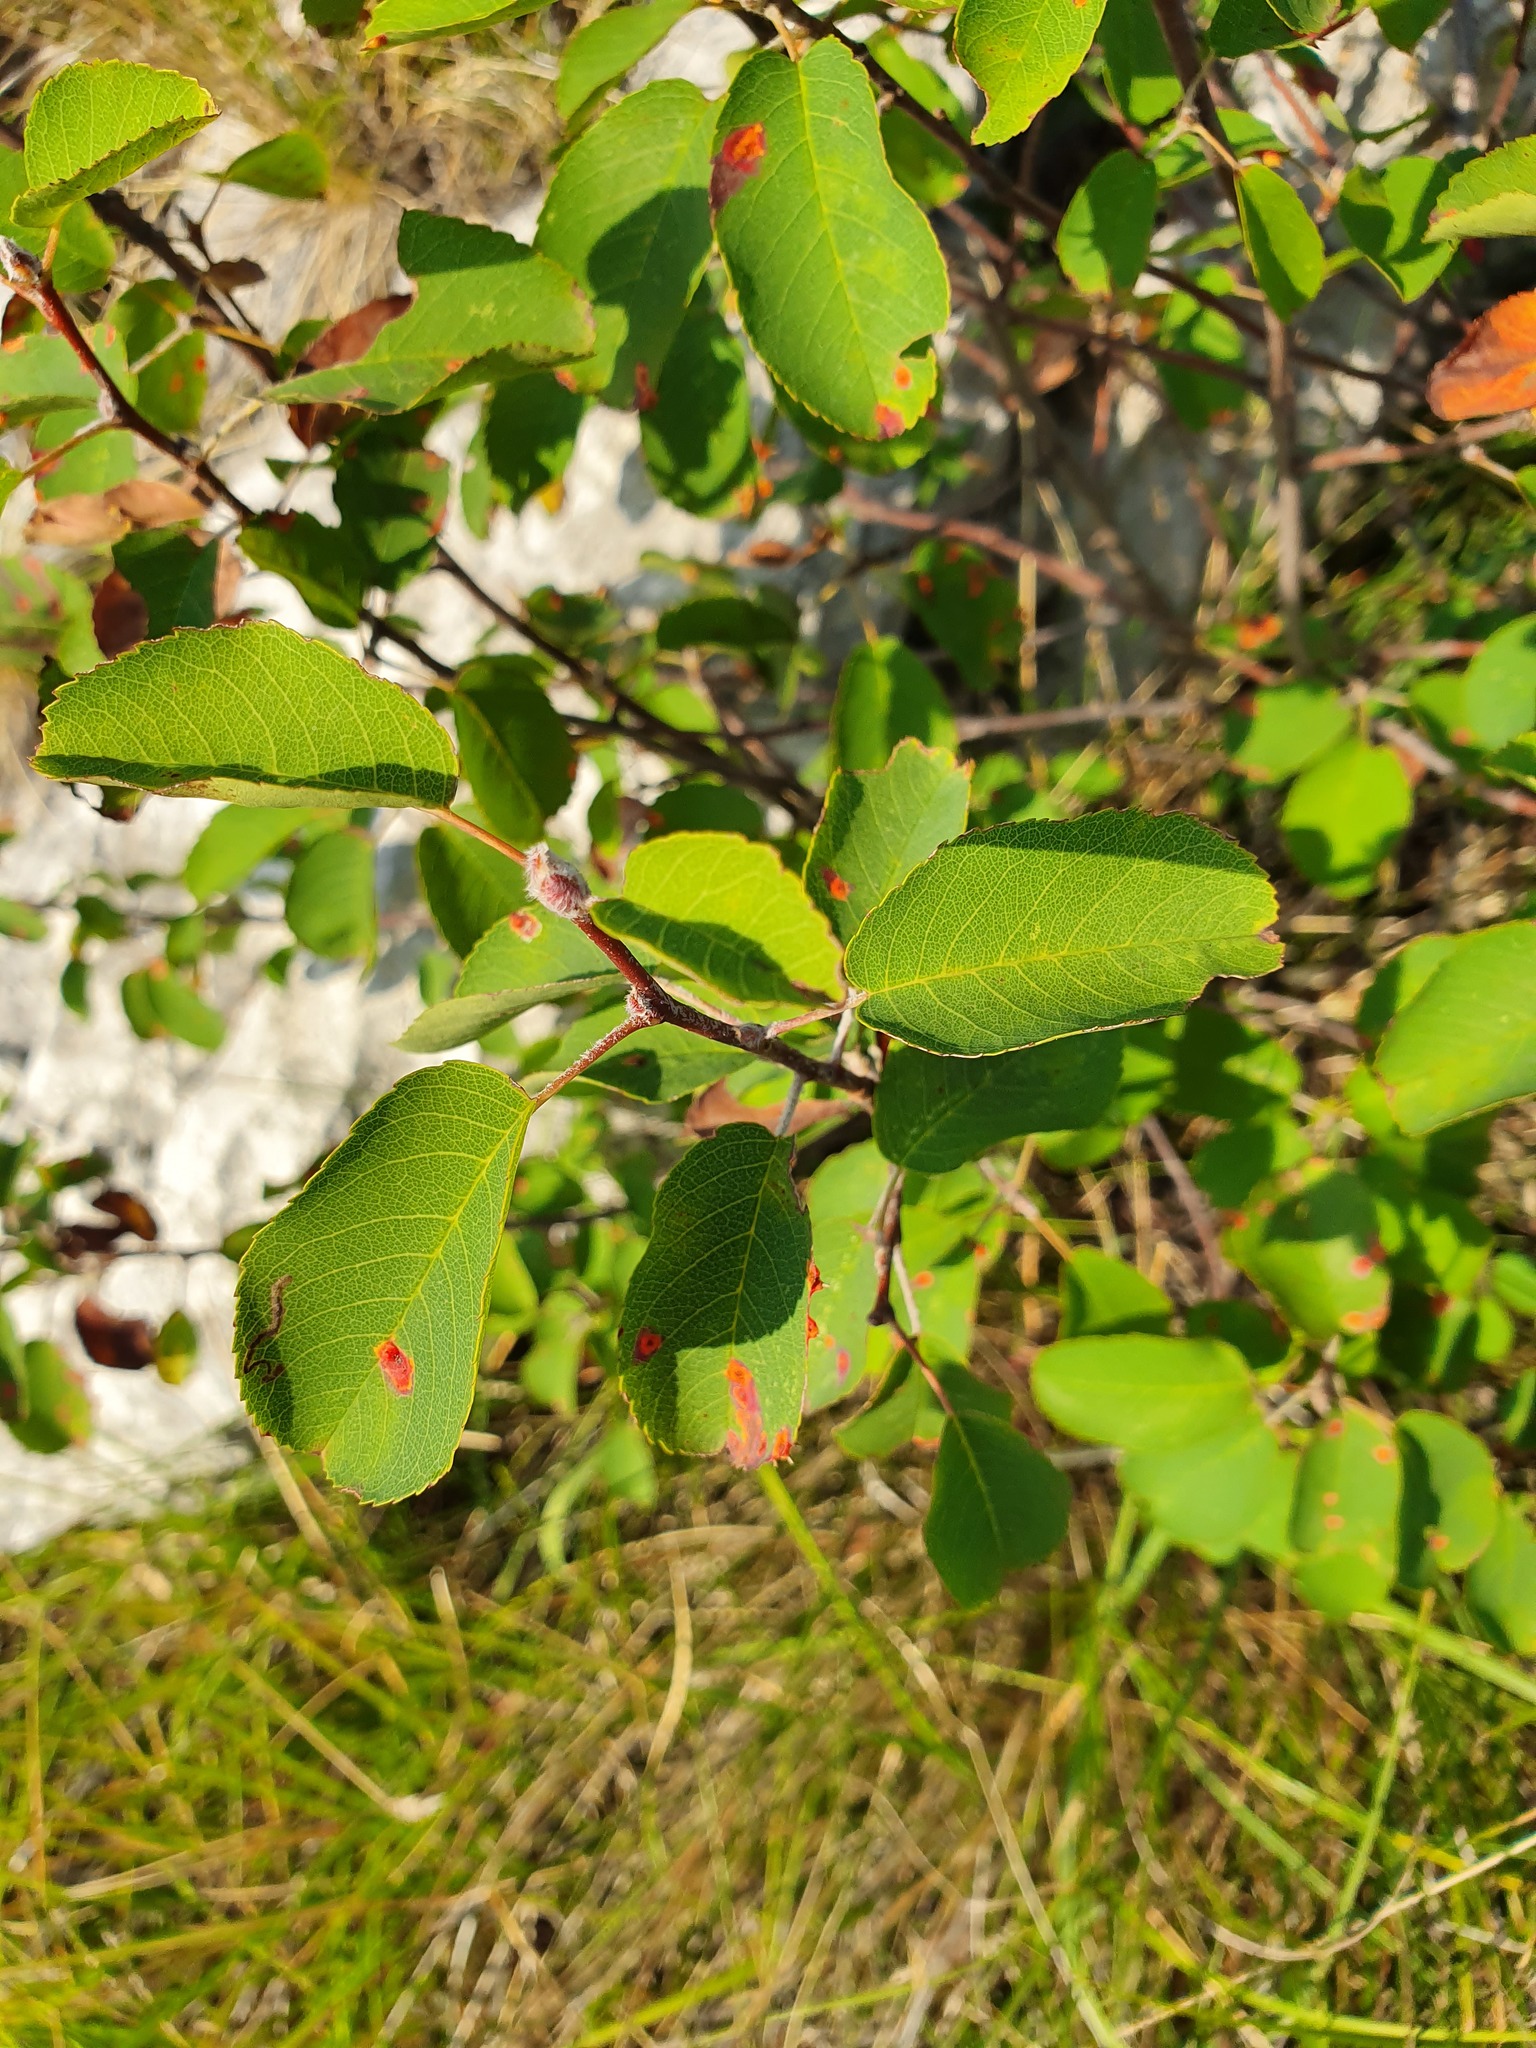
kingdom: Plantae
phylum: Tracheophyta
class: Magnoliopsida
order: Rosales
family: Rosaceae
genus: Amelanchier
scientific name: Amelanchier ovalis
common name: Serviceberry
